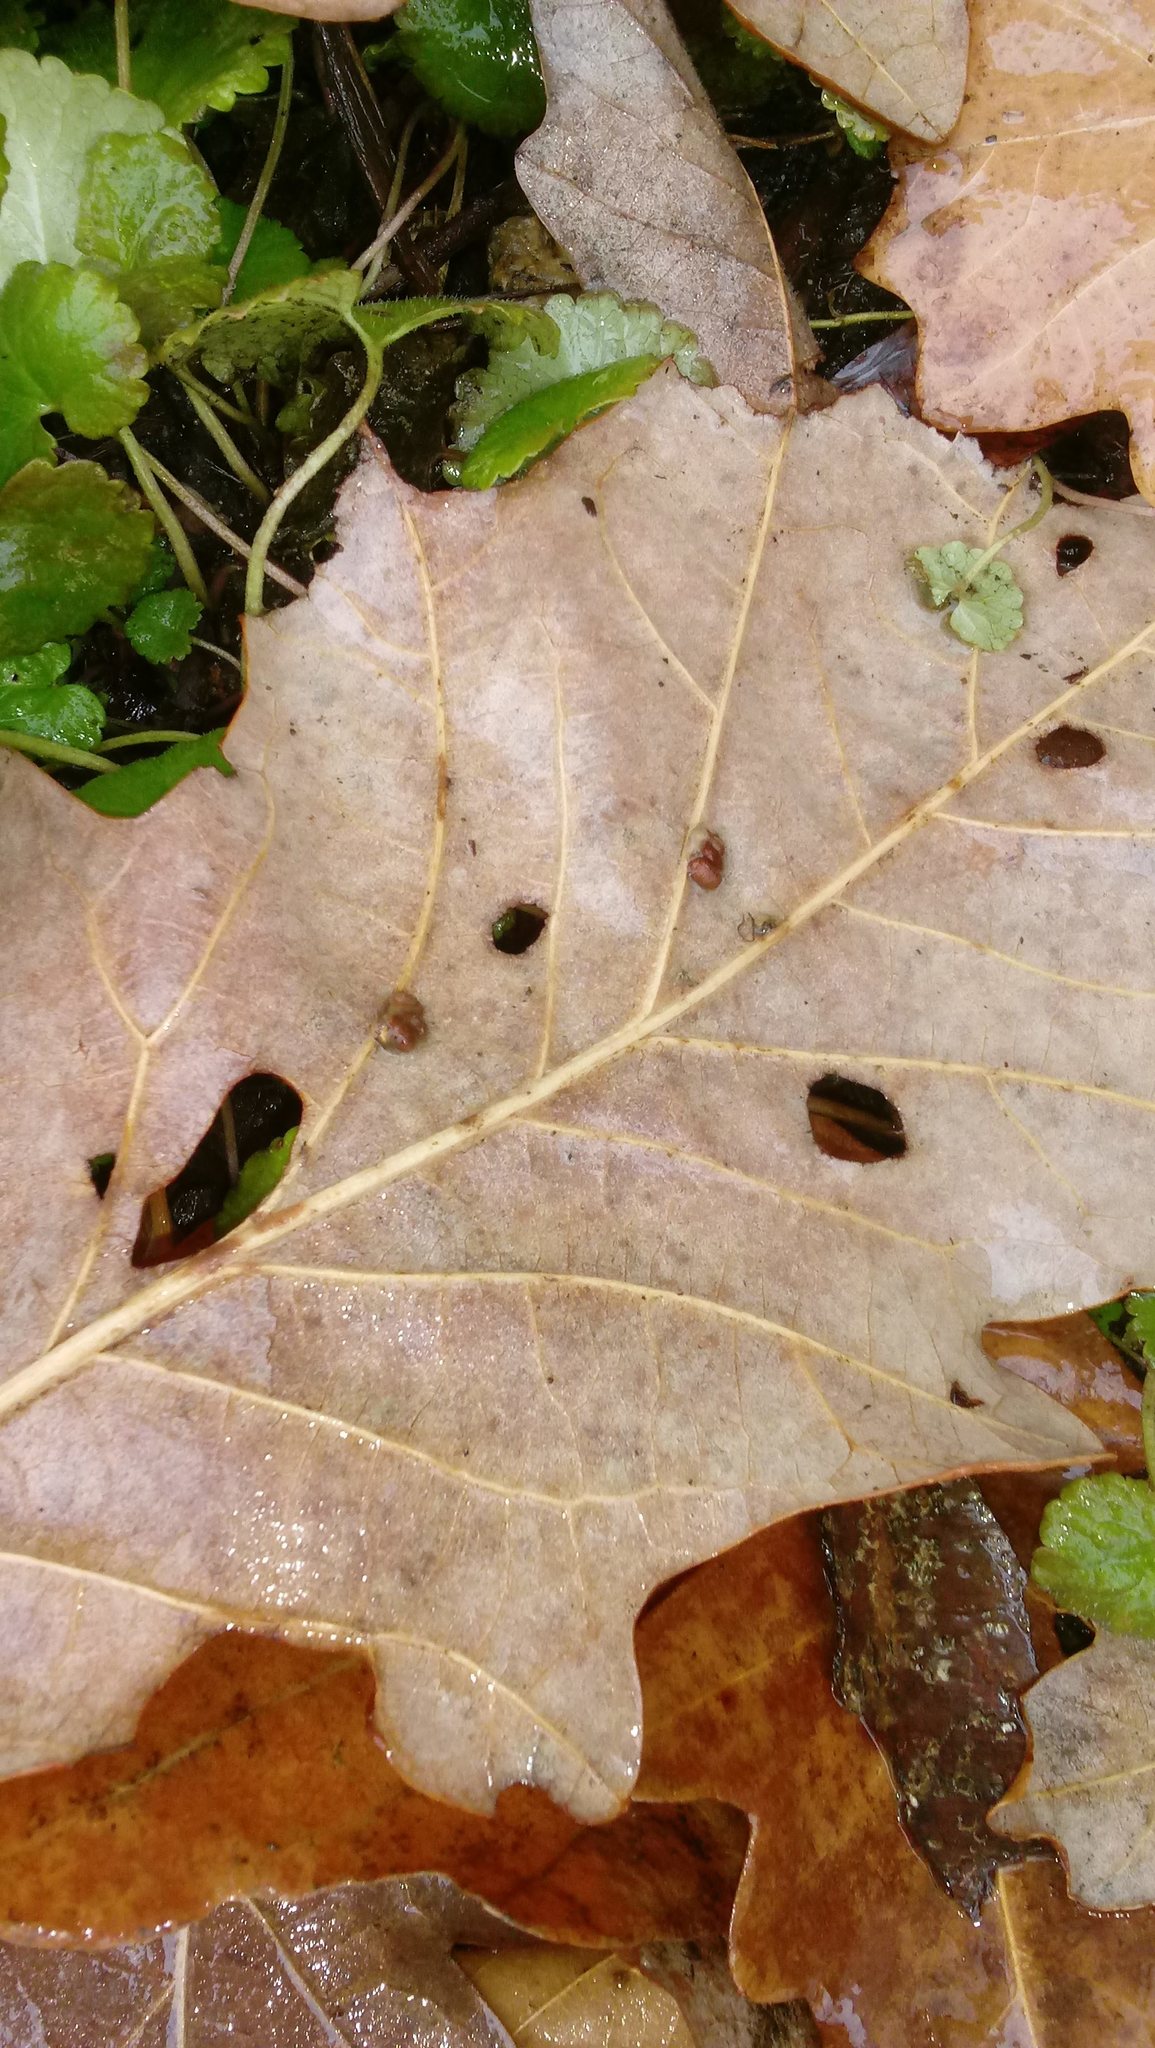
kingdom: Animalia
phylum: Arthropoda
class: Insecta
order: Hymenoptera
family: Cynipidae
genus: Andricus
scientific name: Andricus Druon ignotum
